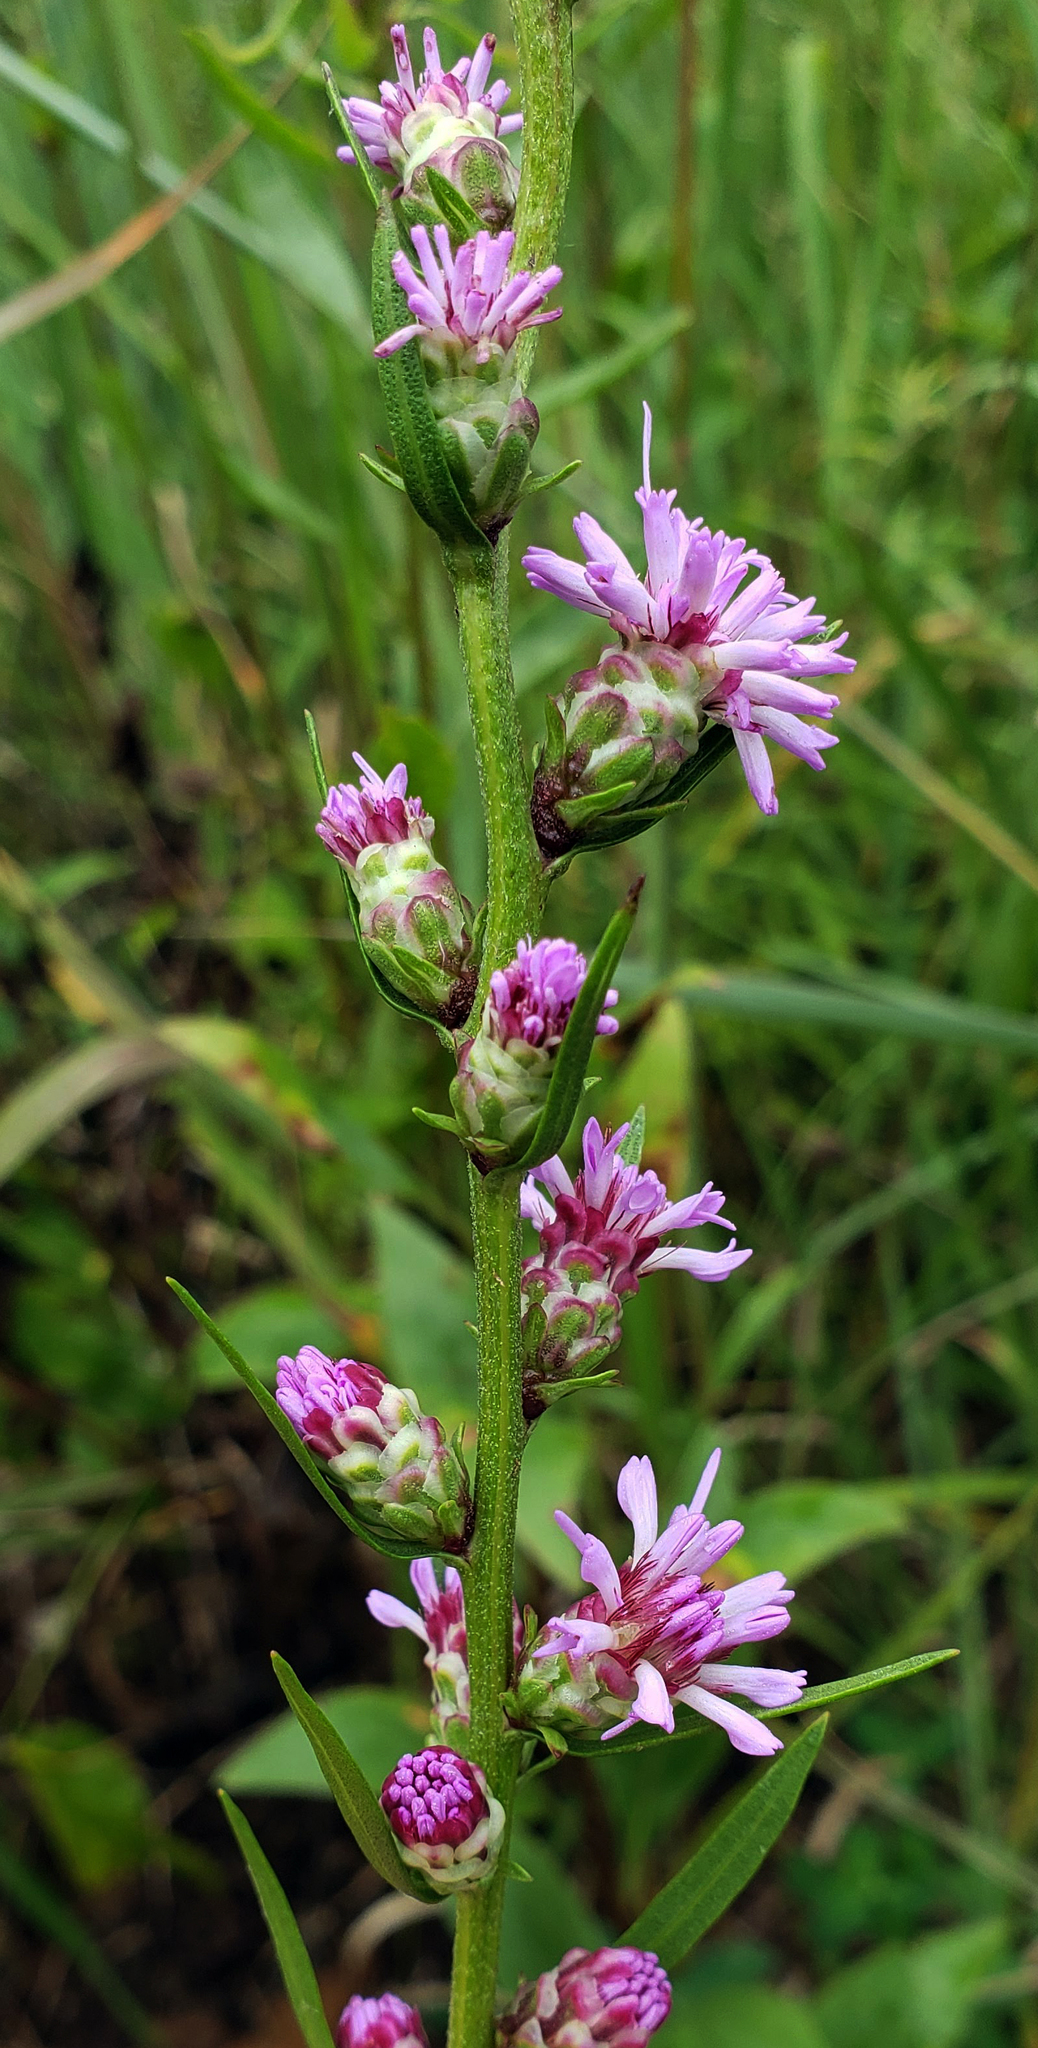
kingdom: Plantae
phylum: Tracheophyta
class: Magnoliopsida
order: Asterales
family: Asteraceae
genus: Liatris
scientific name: Liatris aspera
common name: Lacerate blazing-star
